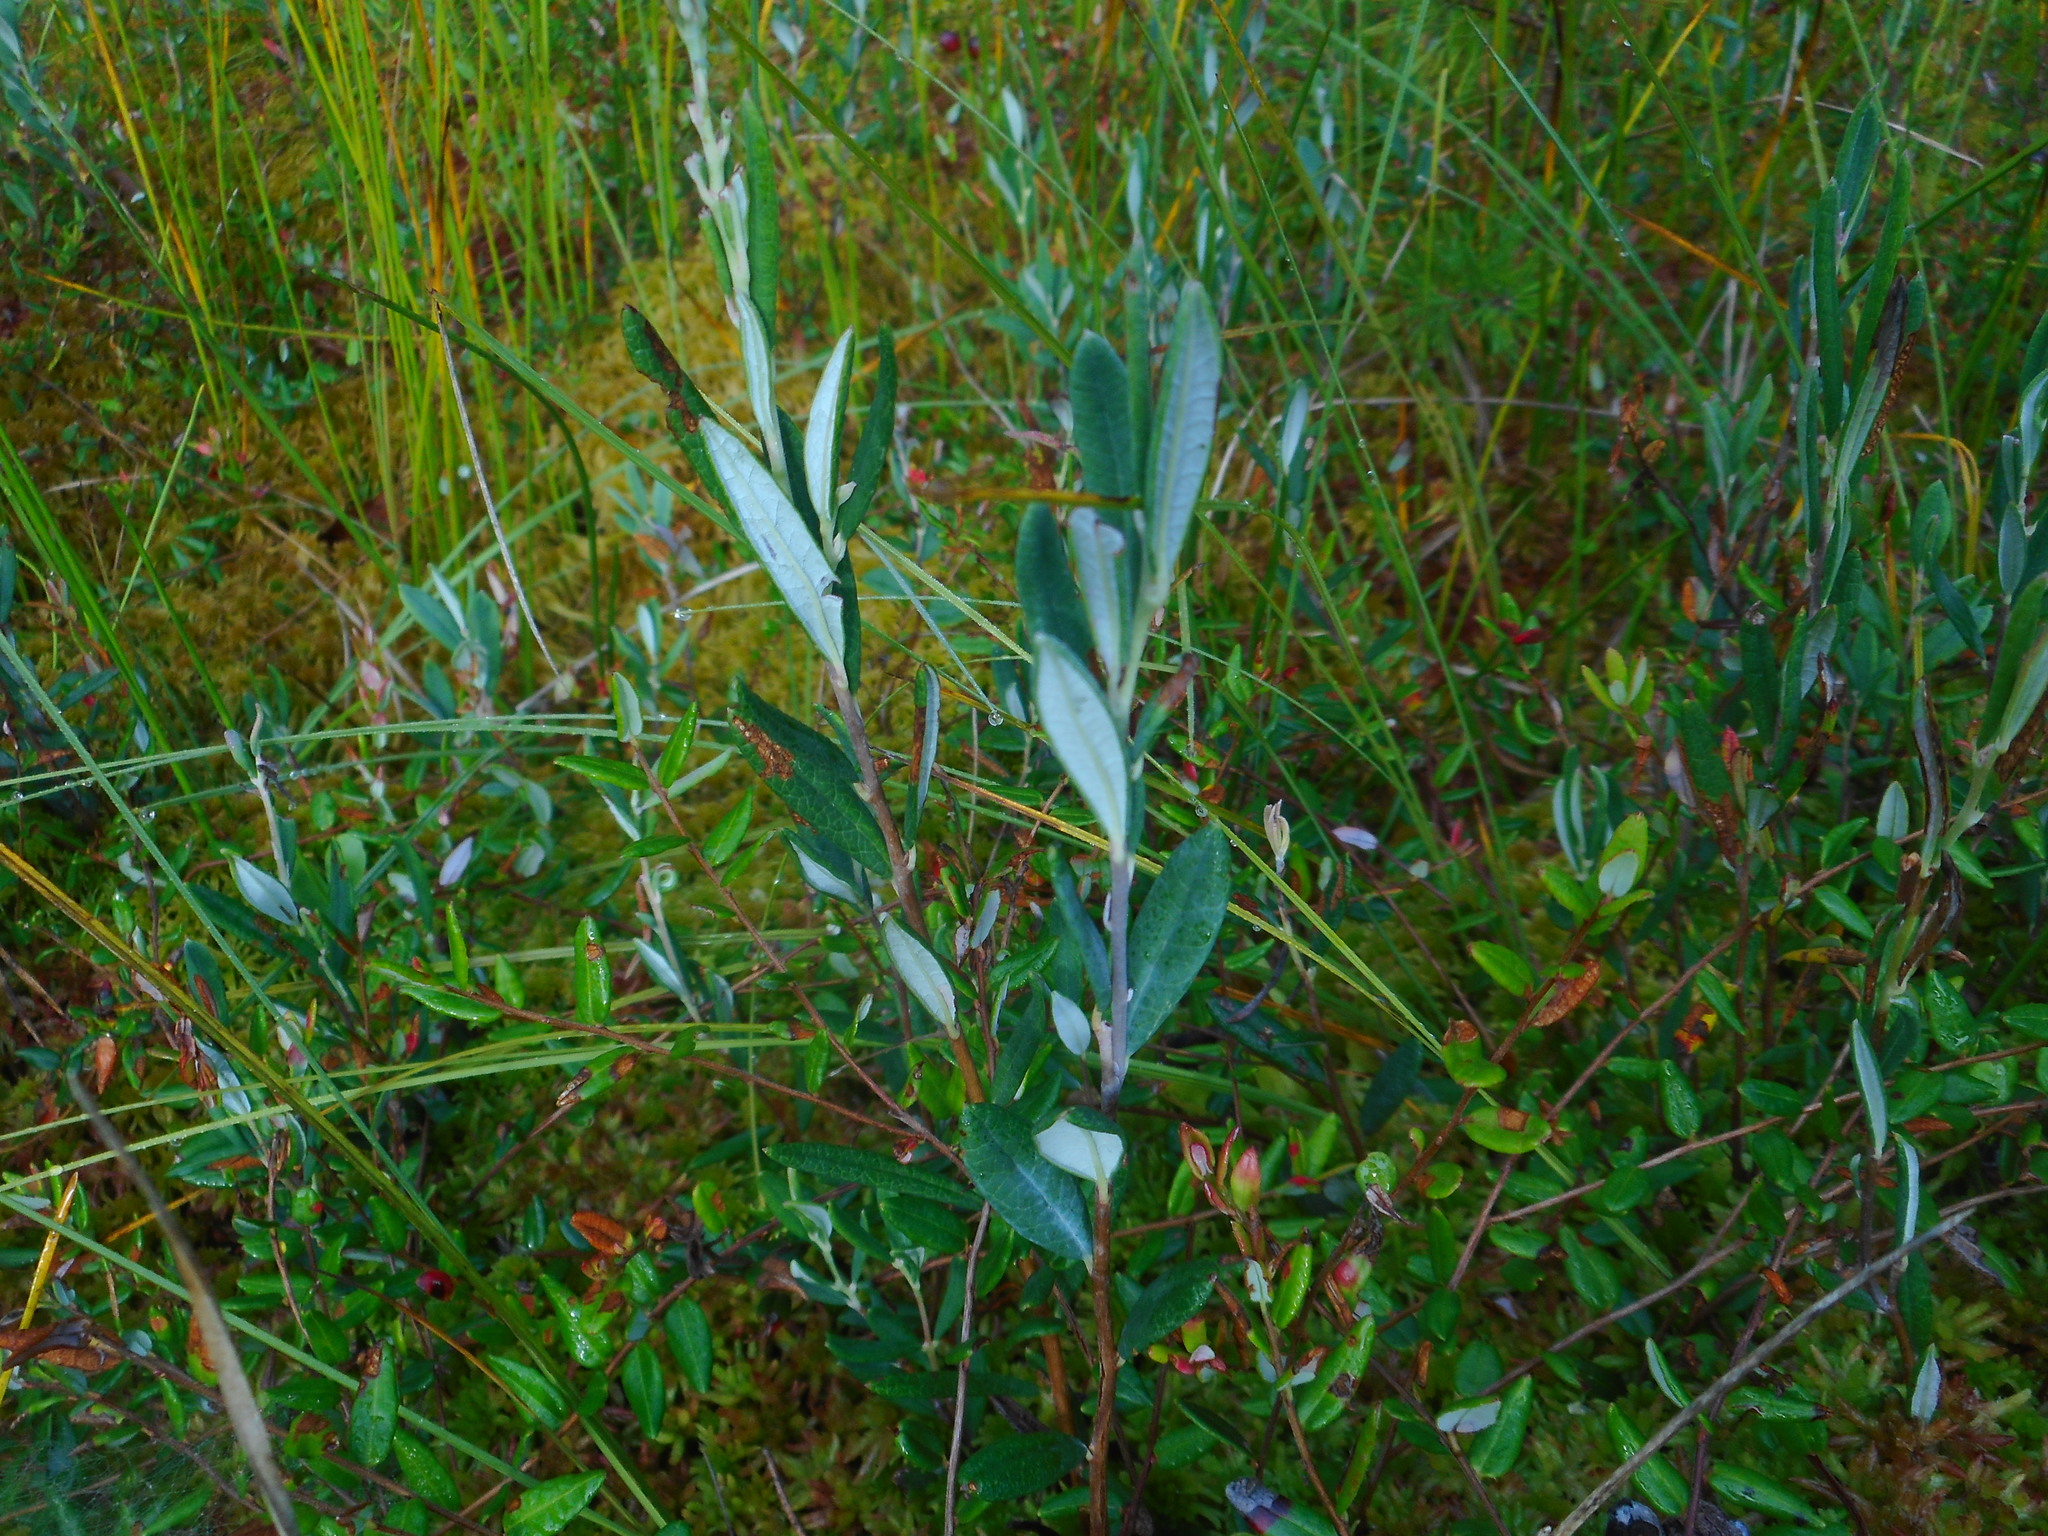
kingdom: Plantae
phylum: Tracheophyta
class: Magnoliopsida
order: Ericales
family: Ericaceae
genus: Andromeda
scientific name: Andromeda polifolia
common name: Bog-rosemary
